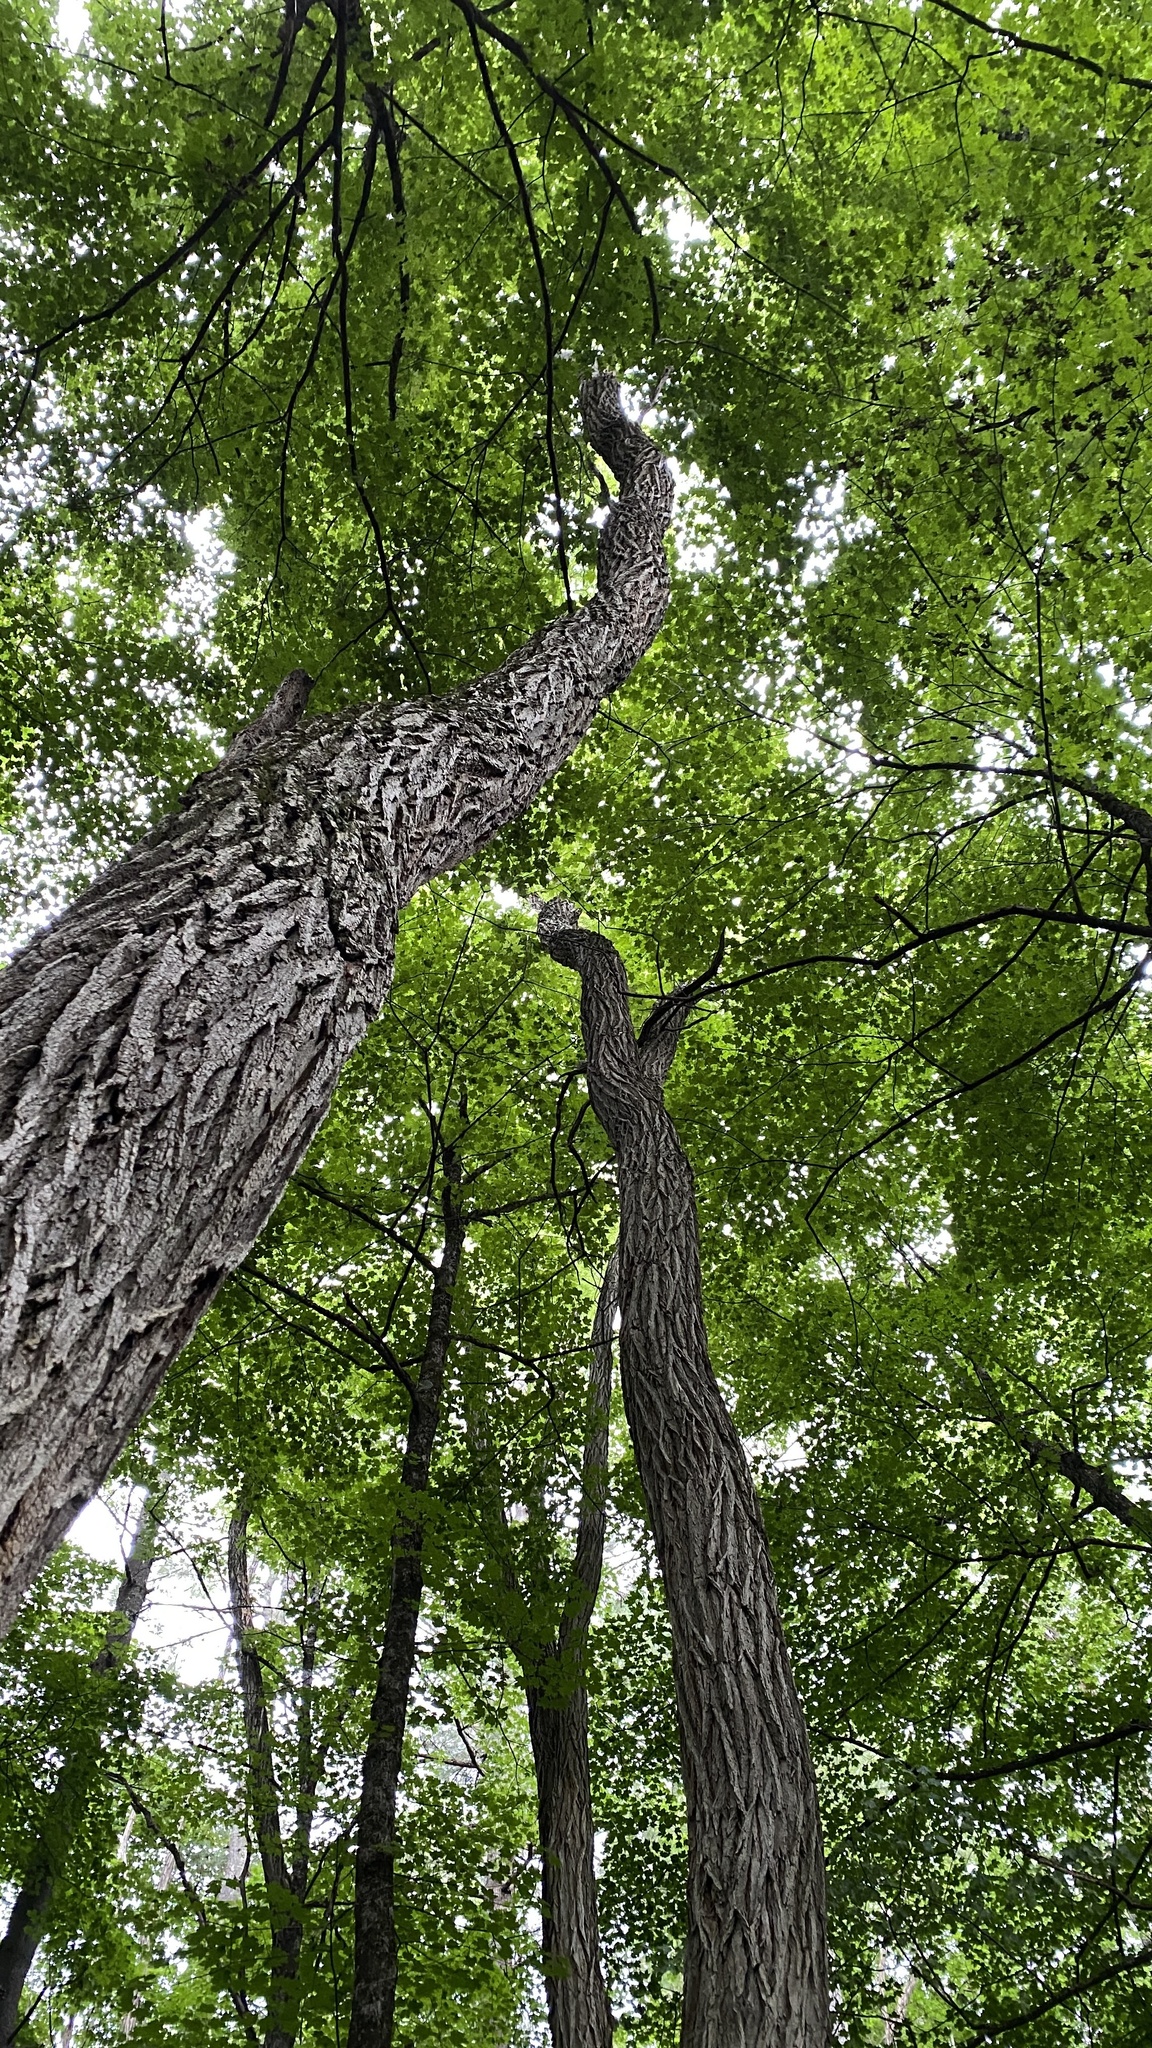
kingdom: Plantae
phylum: Tracheophyta
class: Magnoliopsida
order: Fabales
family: Fabaceae
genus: Robinia
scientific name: Robinia pseudoacacia
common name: Black locust
